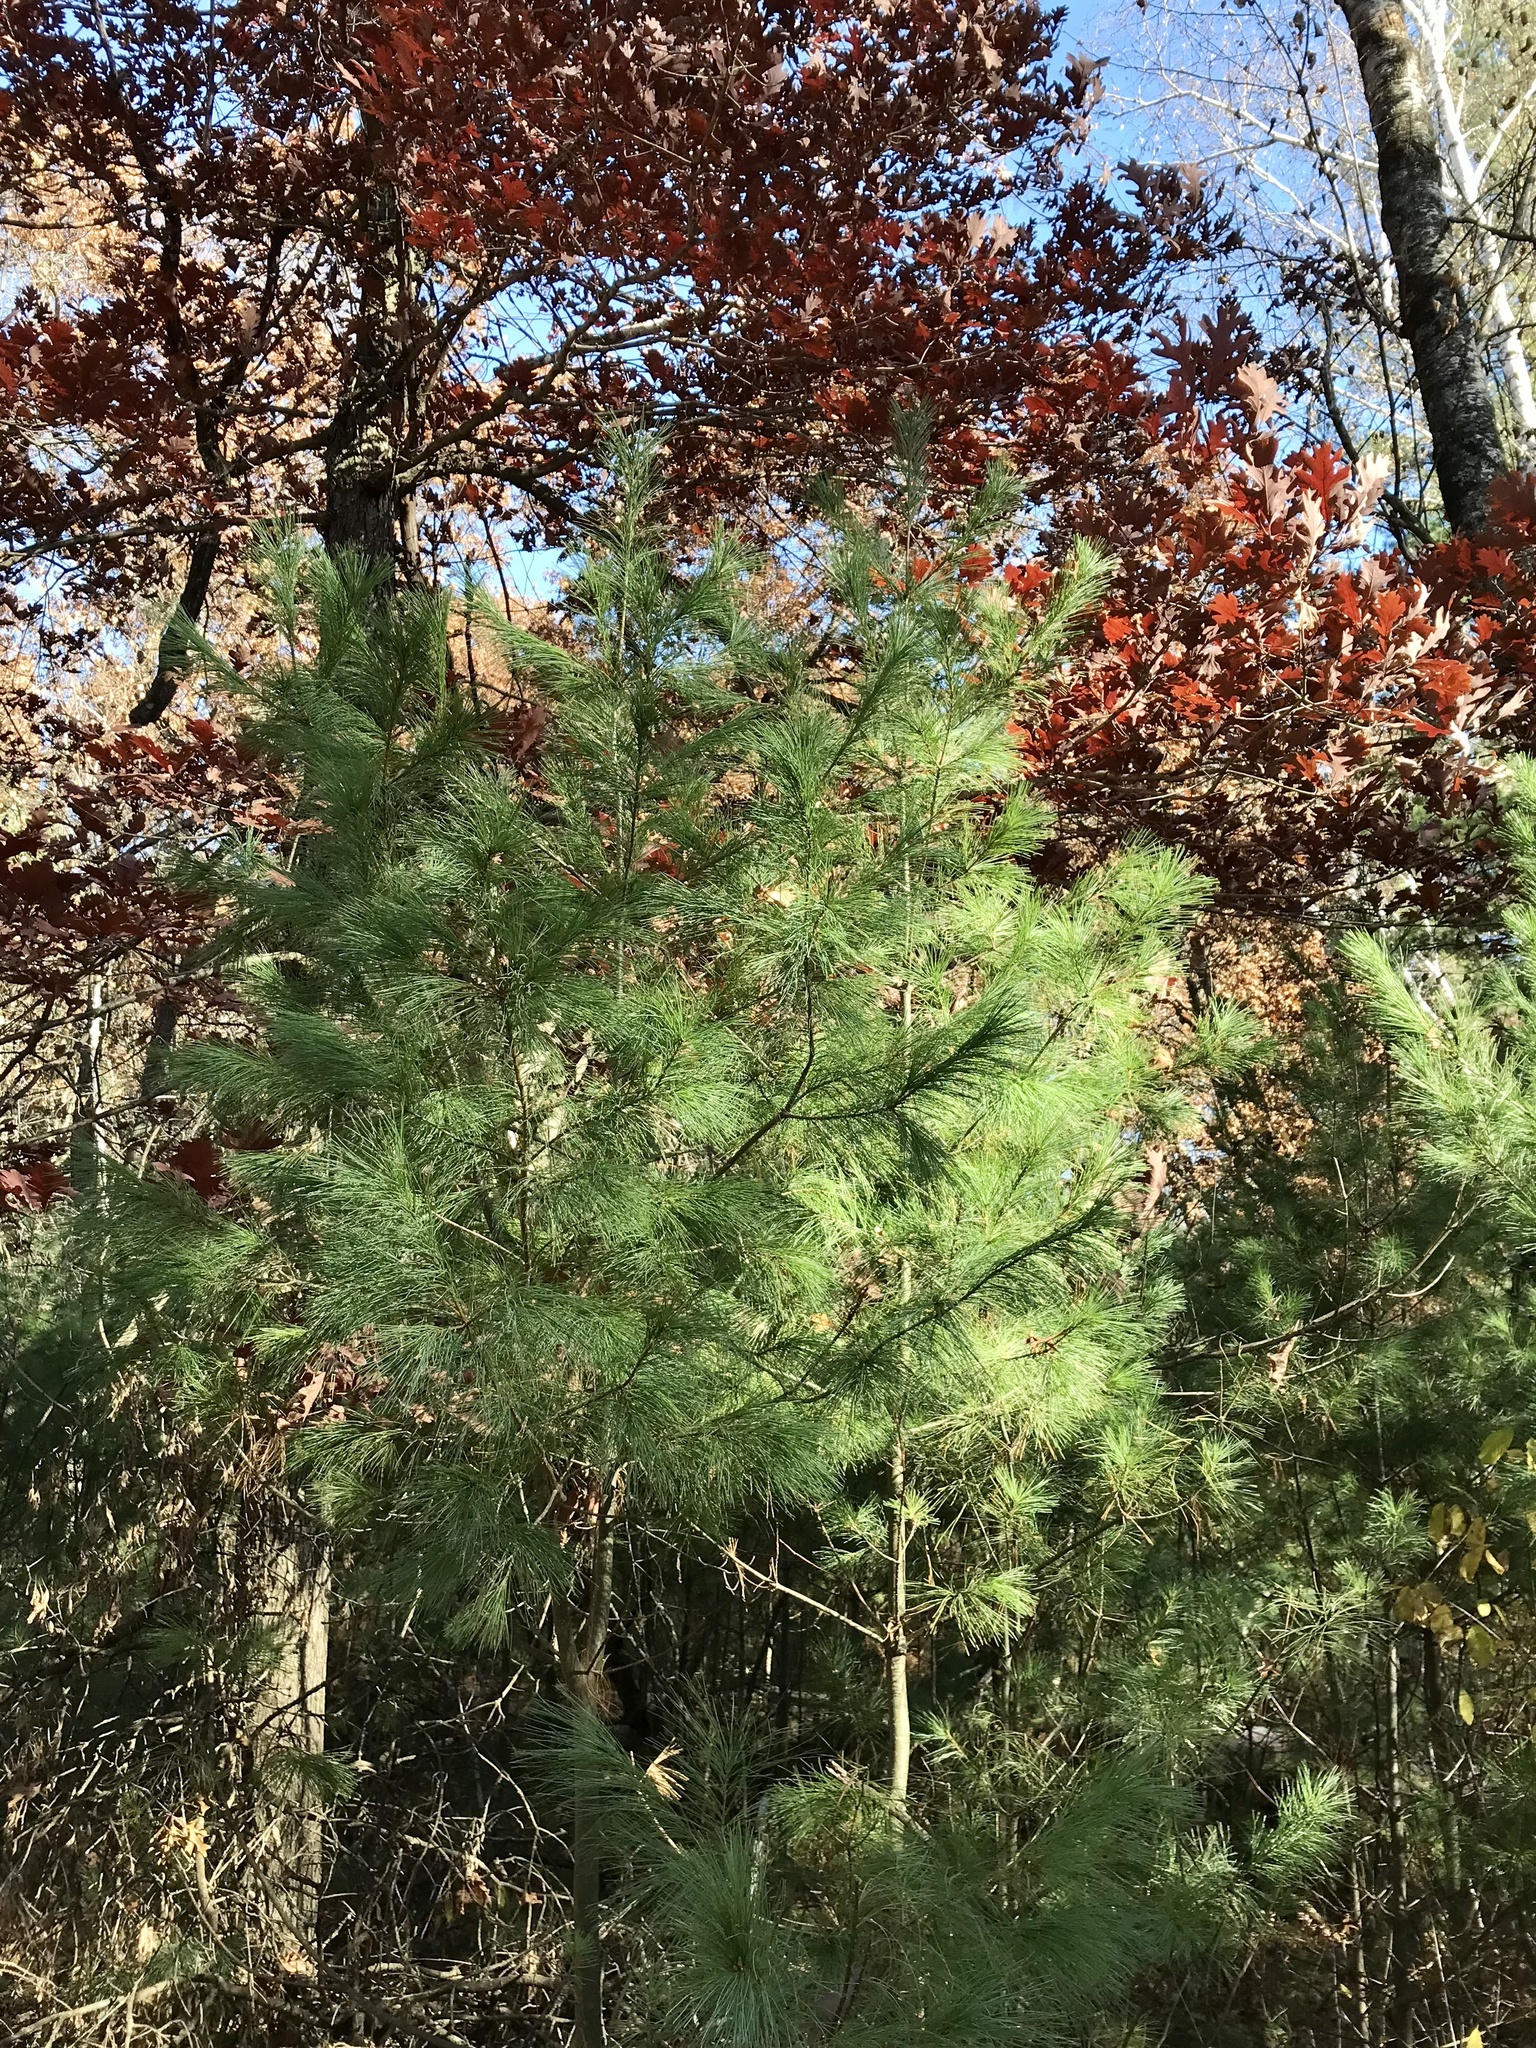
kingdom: Plantae
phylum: Tracheophyta
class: Pinopsida
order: Pinales
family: Pinaceae
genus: Pinus
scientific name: Pinus strobus
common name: Weymouth pine
